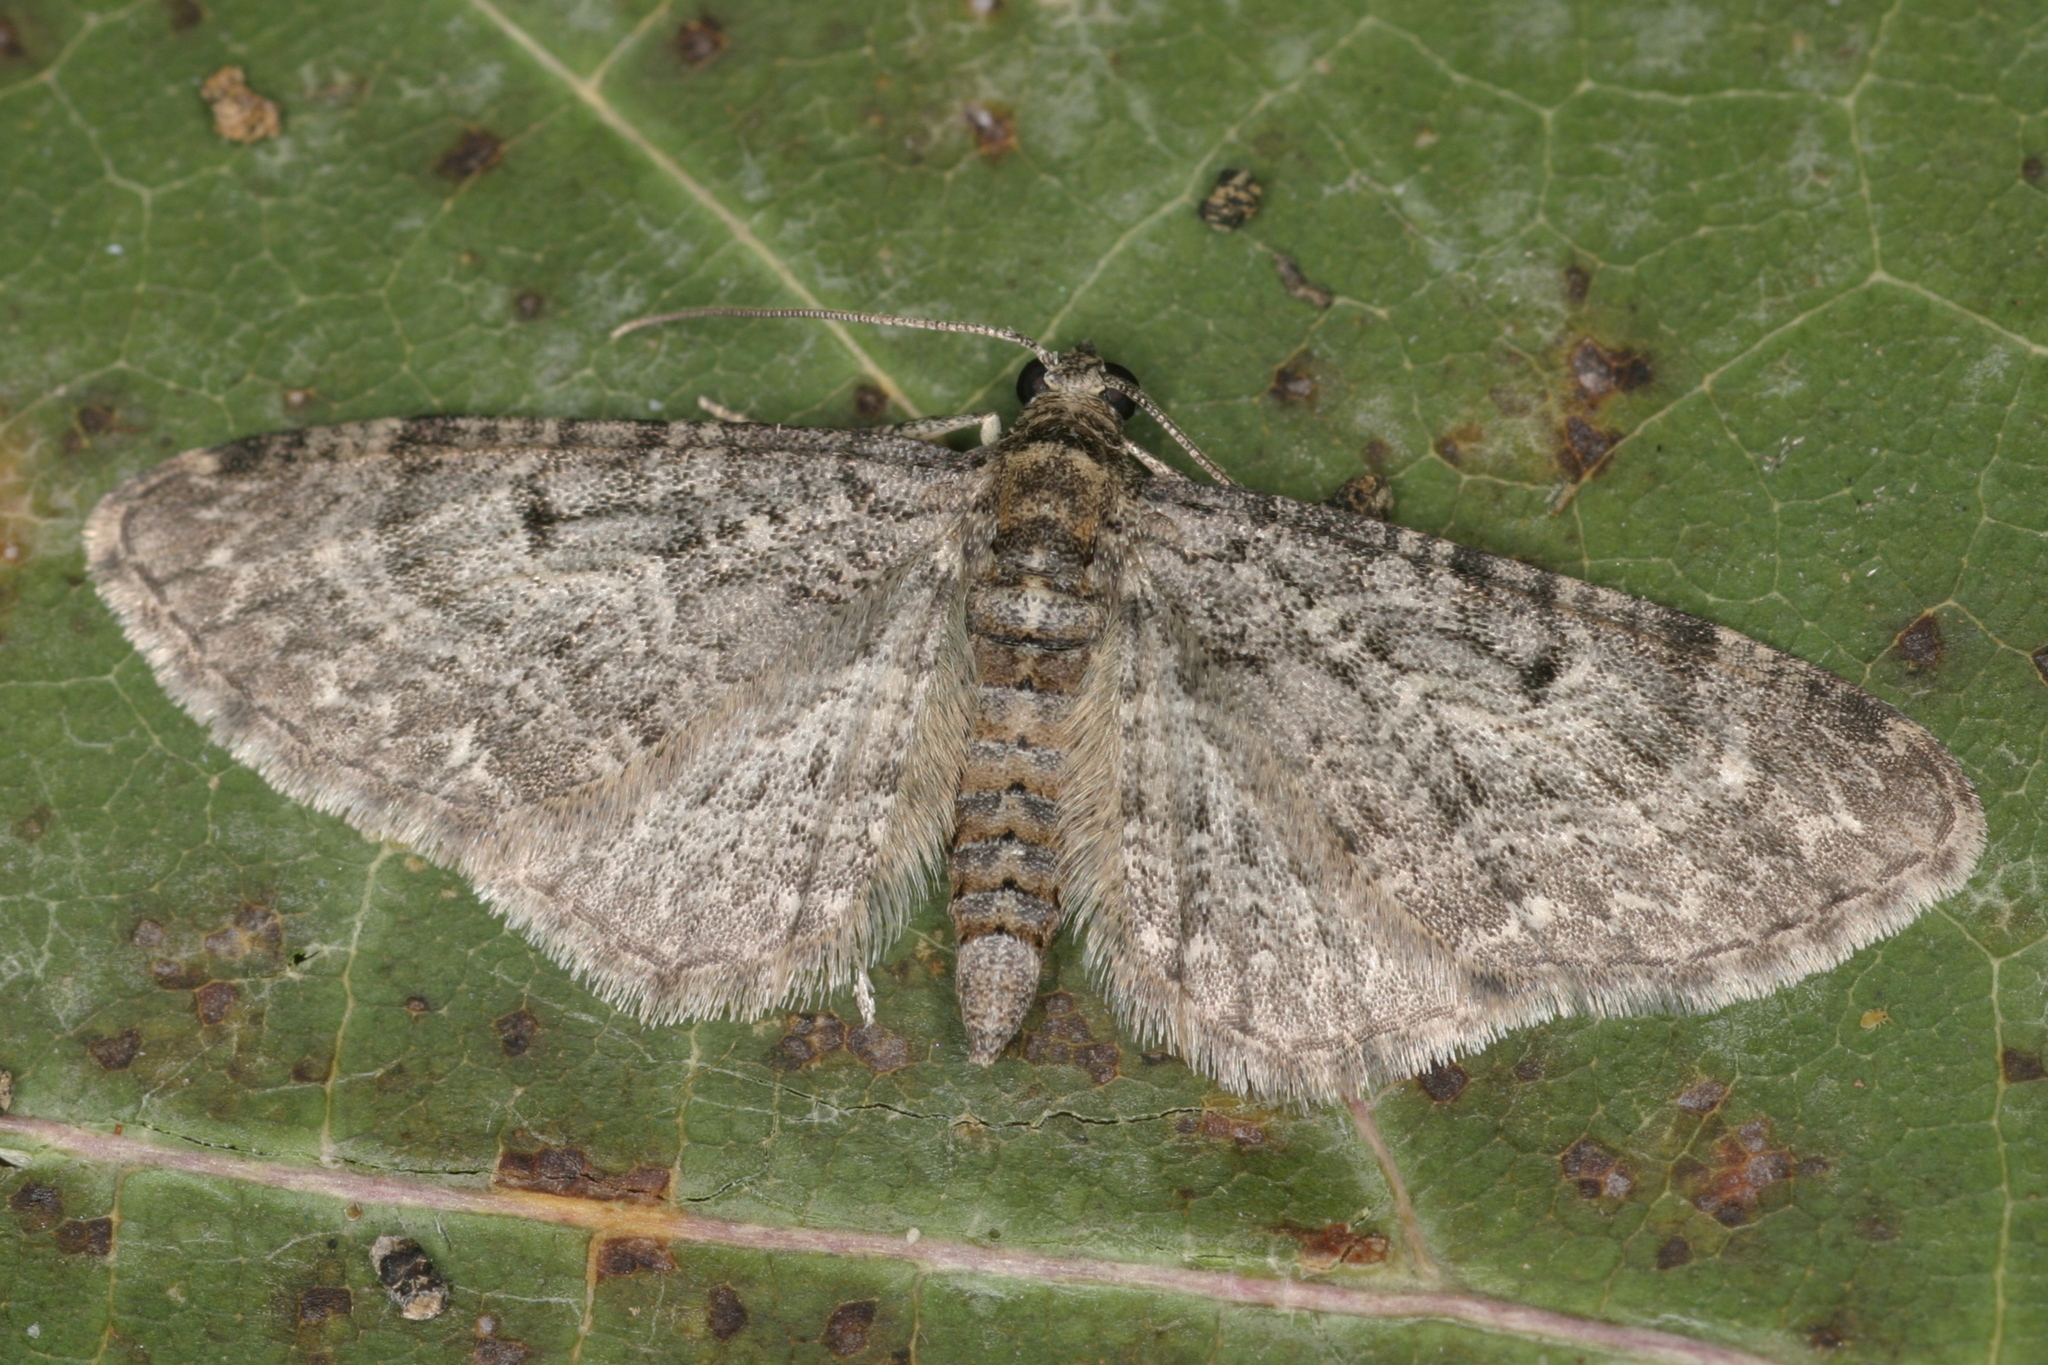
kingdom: Animalia
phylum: Arthropoda
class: Insecta
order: Lepidoptera
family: Geometridae
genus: Eupithecia
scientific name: Eupithecia subfuscata
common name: Grey pug
